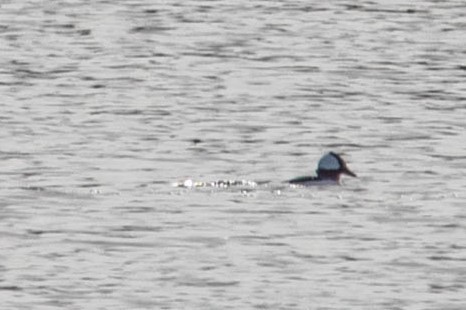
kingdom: Animalia
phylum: Chordata
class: Aves
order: Anseriformes
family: Anatidae
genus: Bucephala
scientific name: Bucephala albeola
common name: Bufflehead
